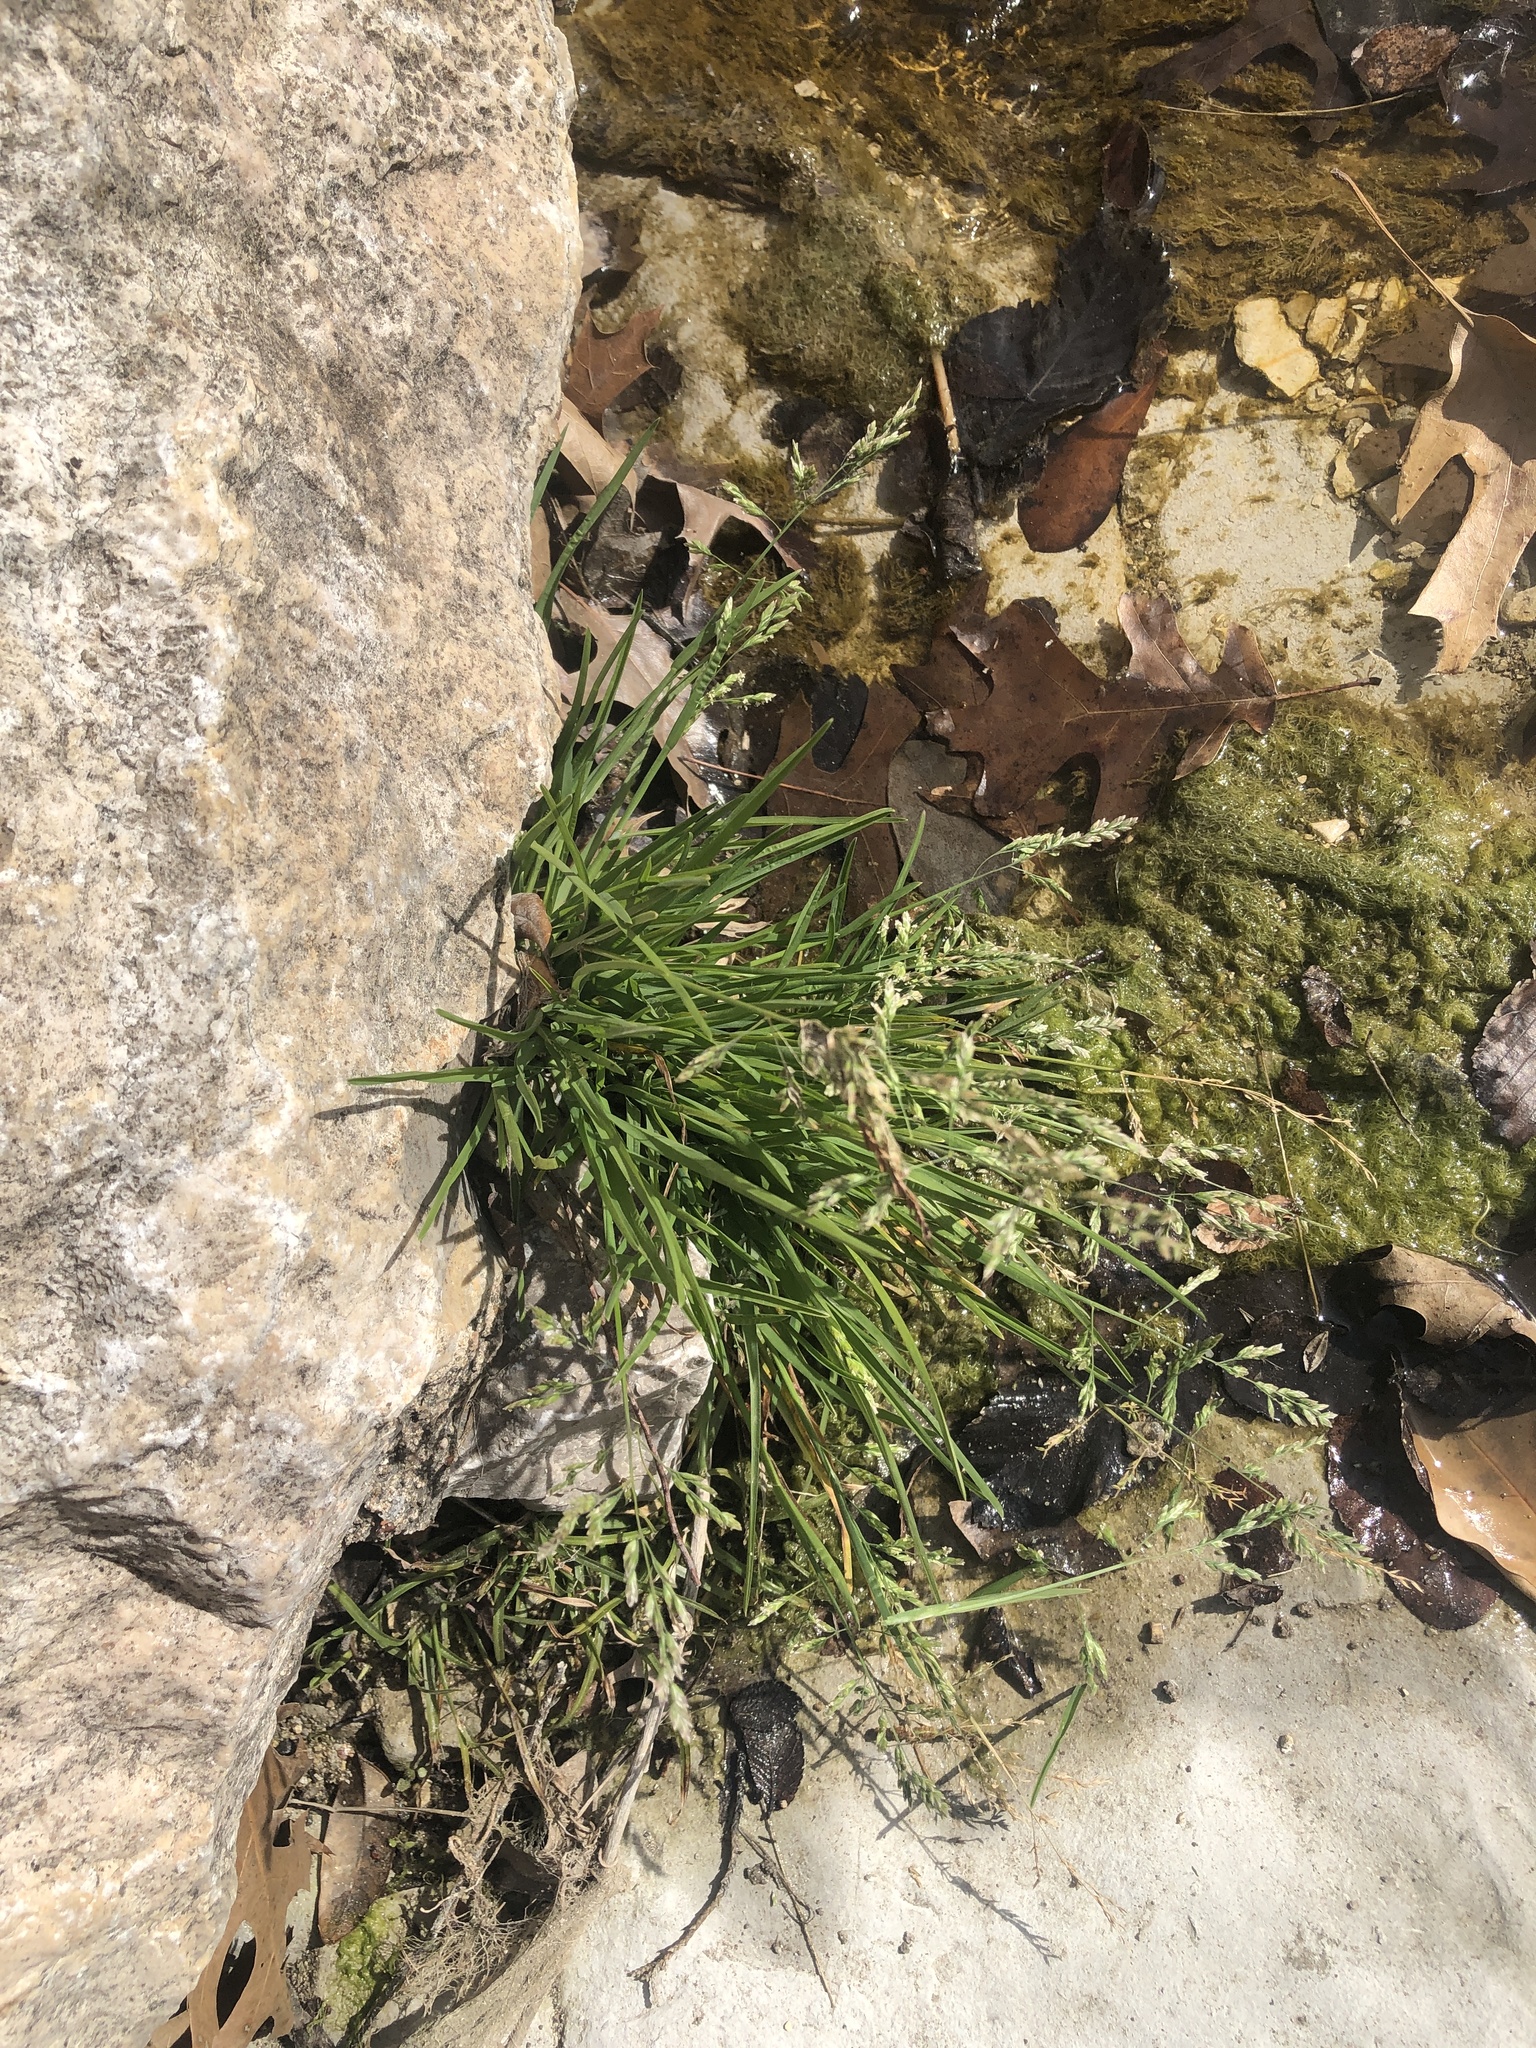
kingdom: Plantae
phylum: Tracheophyta
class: Liliopsida
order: Poales
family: Poaceae
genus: Poa
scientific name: Poa annua
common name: Annual bluegrass
